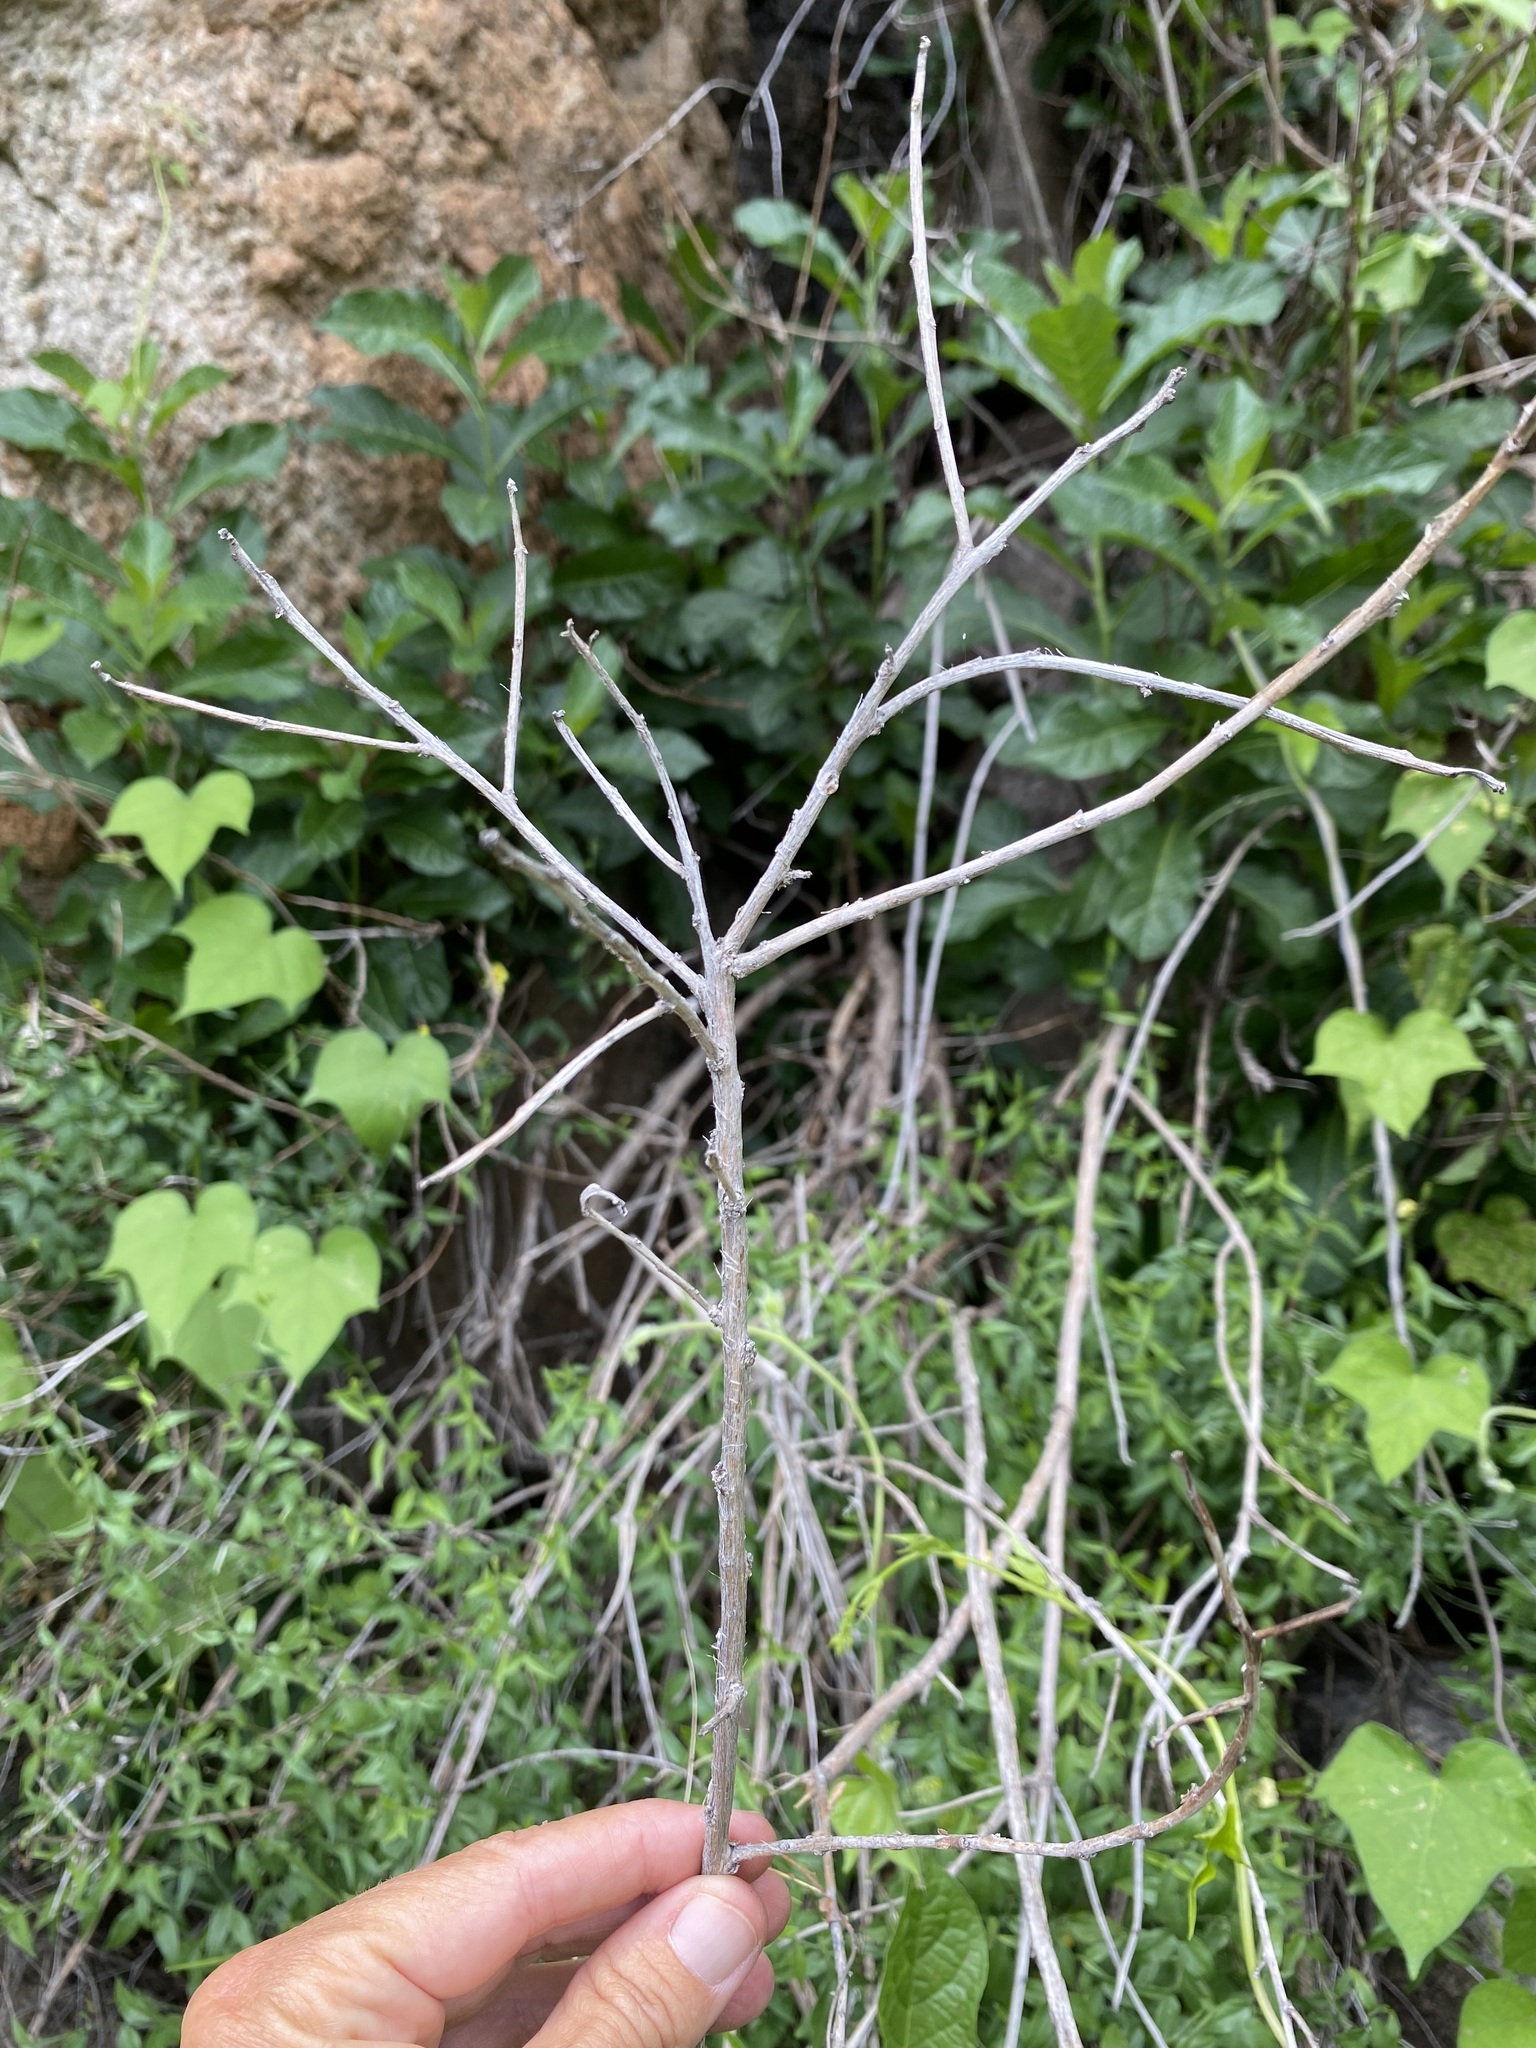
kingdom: Plantae
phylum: Tracheophyta
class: Magnoliopsida
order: Boraginales
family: Heliotropiaceae
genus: Tournefortia
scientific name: Tournefortia mutabilis
